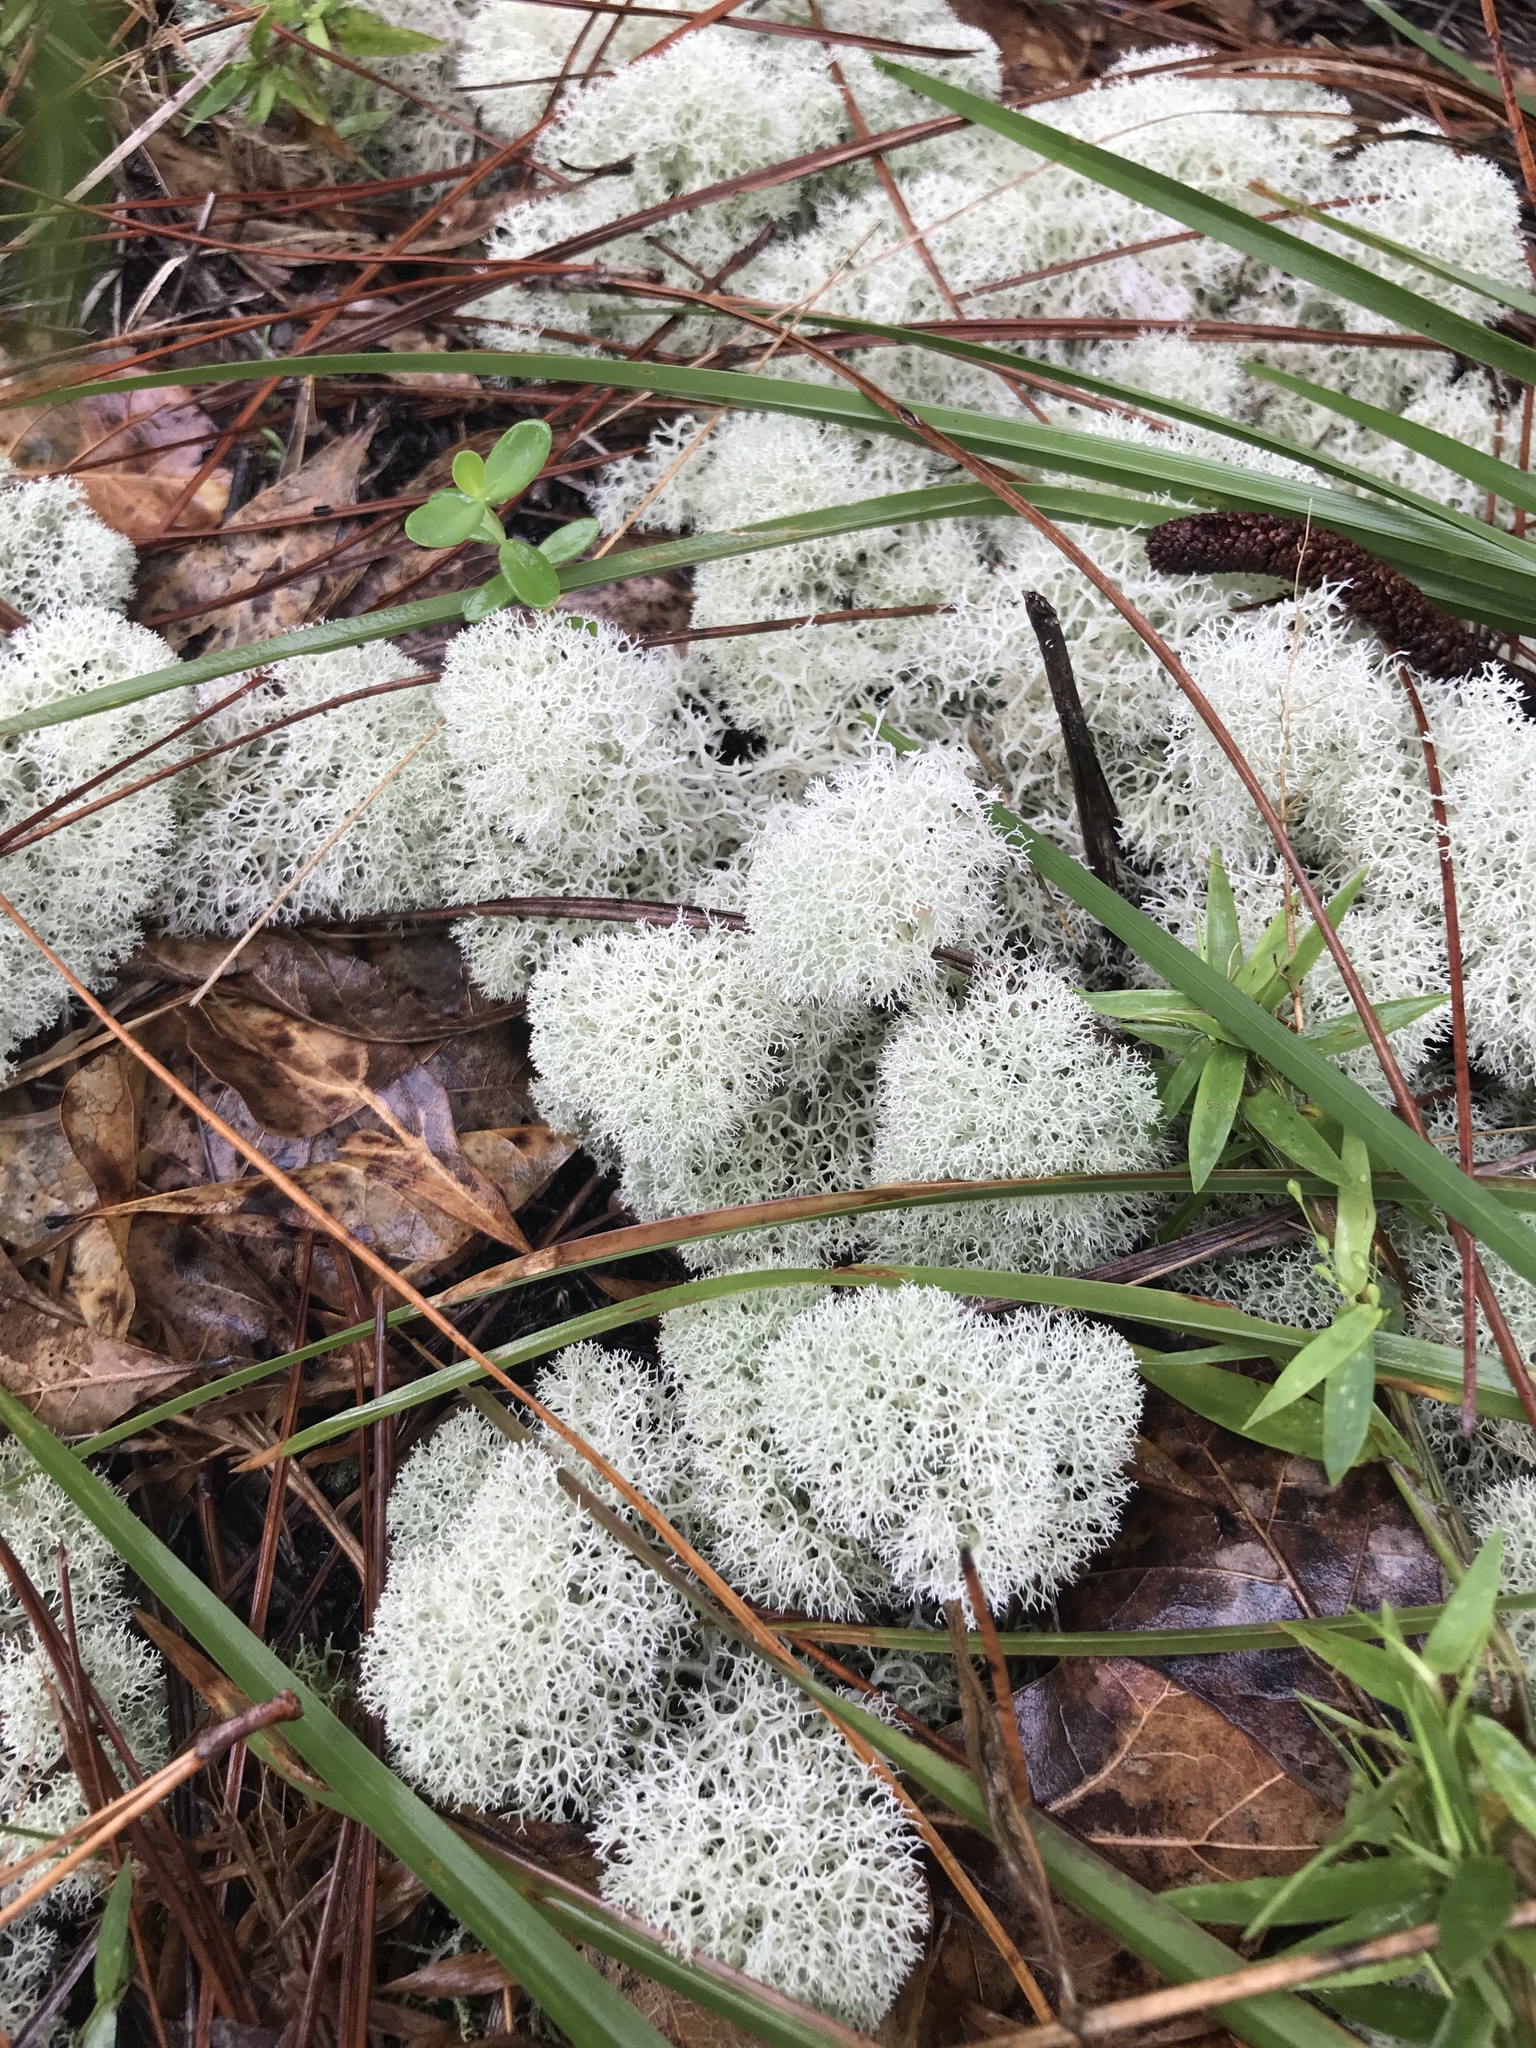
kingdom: Fungi
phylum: Ascomycota
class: Lecanoromycetes
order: Lecanorales
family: Cladoniaceae
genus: Cladonia
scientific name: Cladonia evansii
